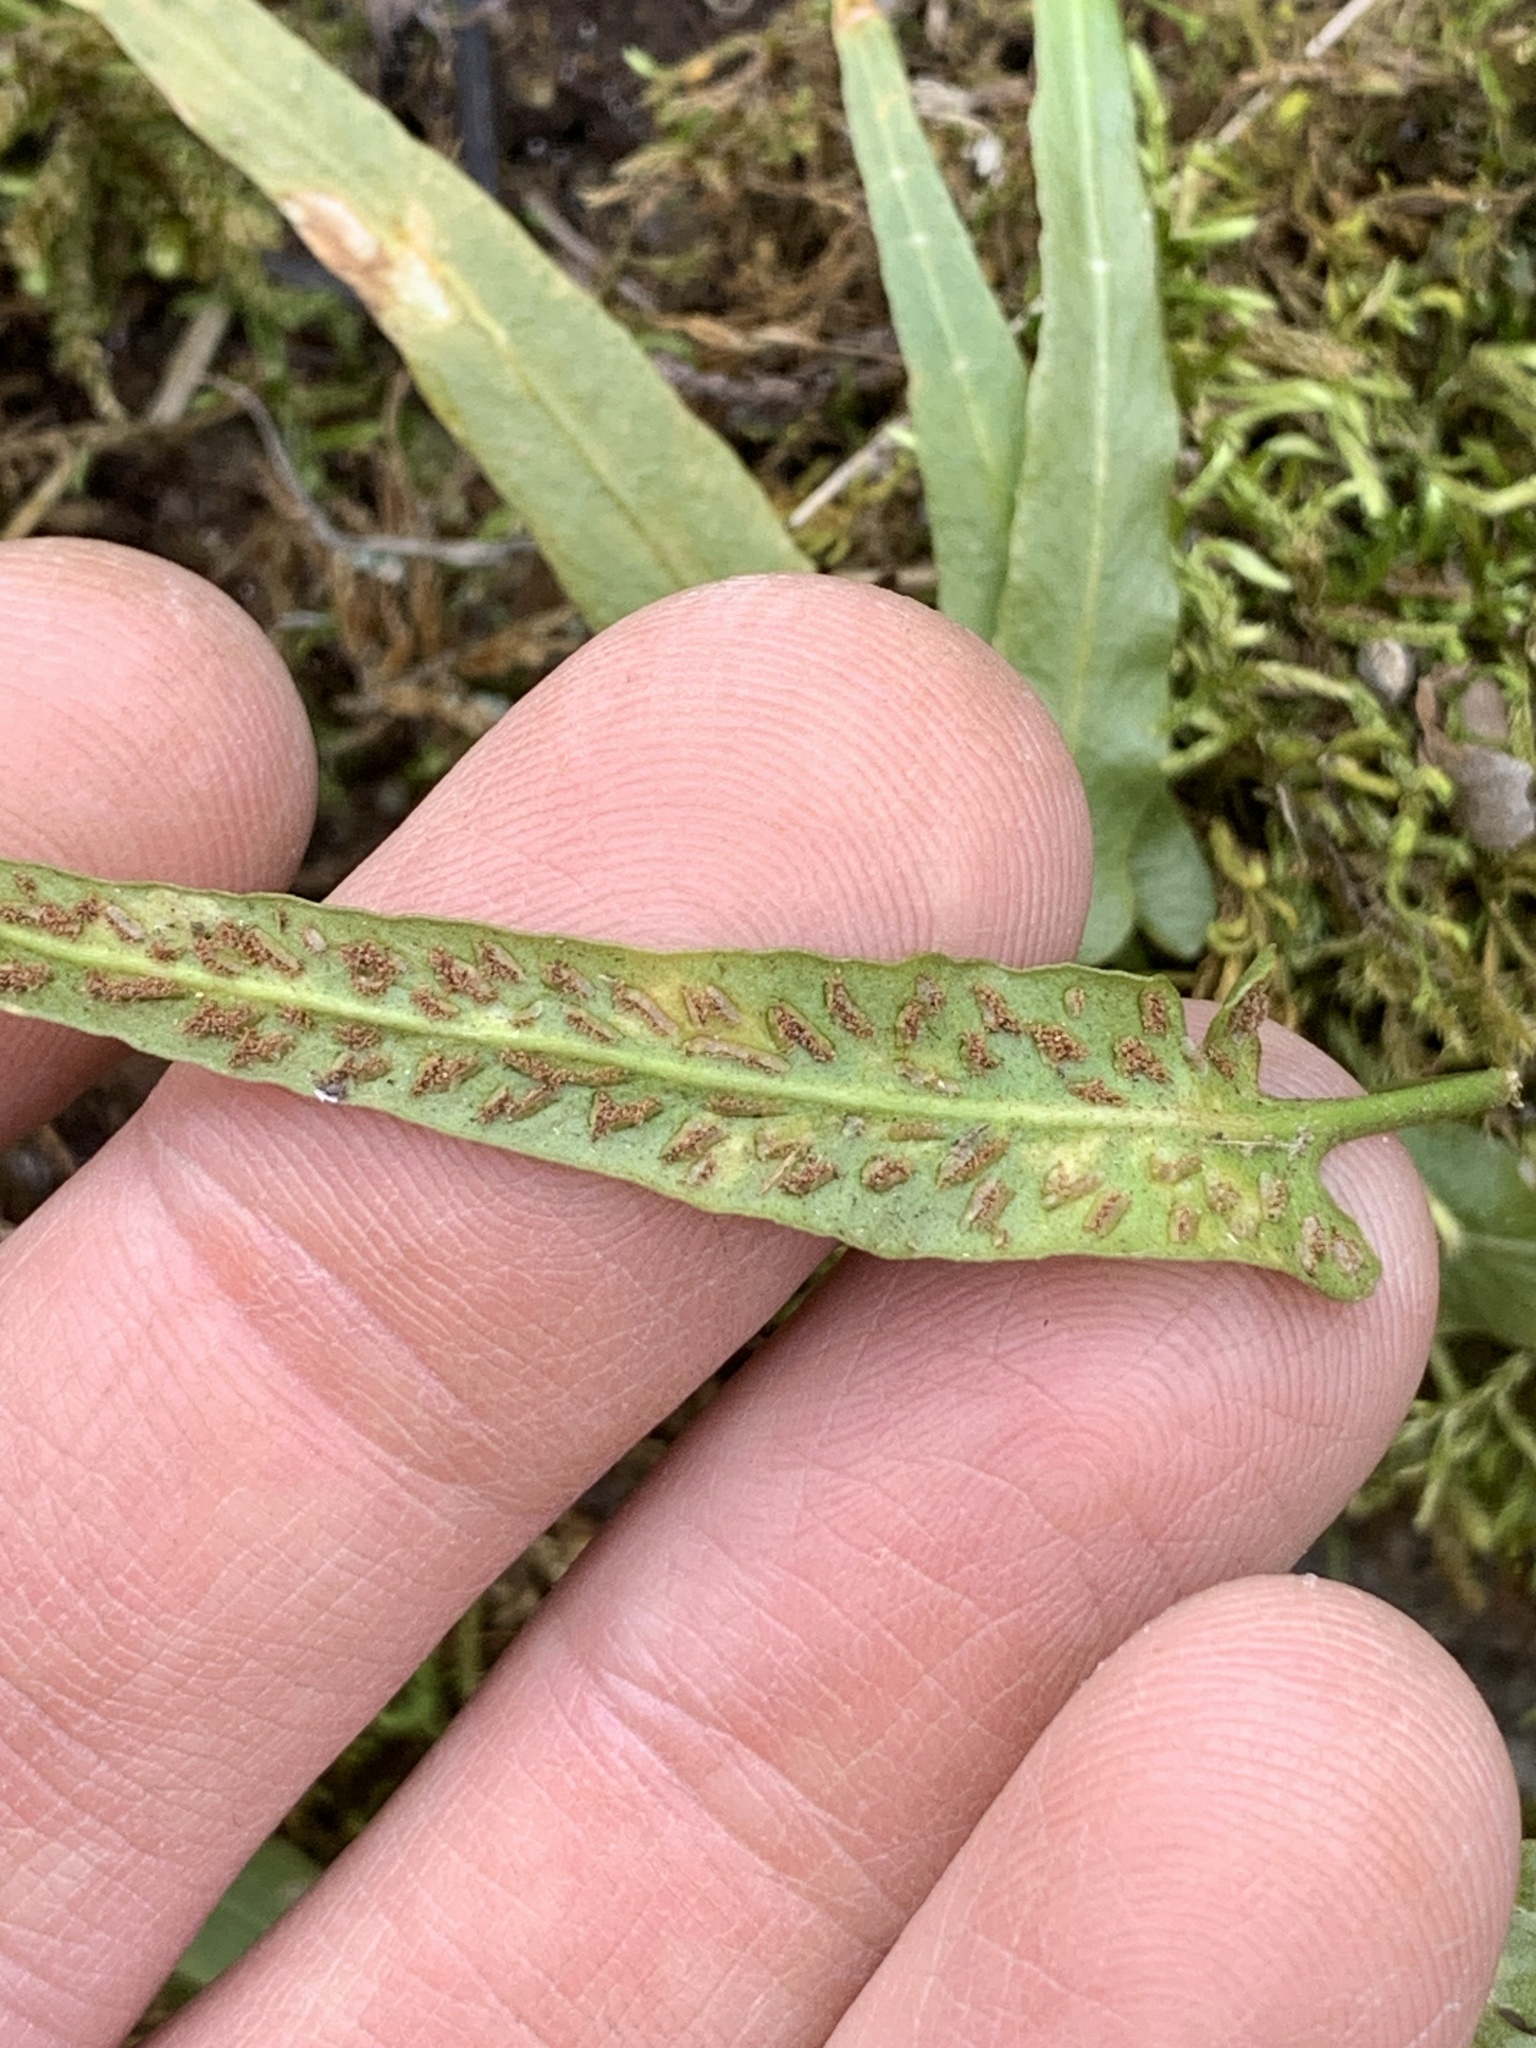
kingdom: Plantae
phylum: Tracheophyta
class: Polypodiopsida
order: Polypodiales
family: Aspleniaceae
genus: Asplenium
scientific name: Asplenium rhizophyllum
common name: Walking fern
